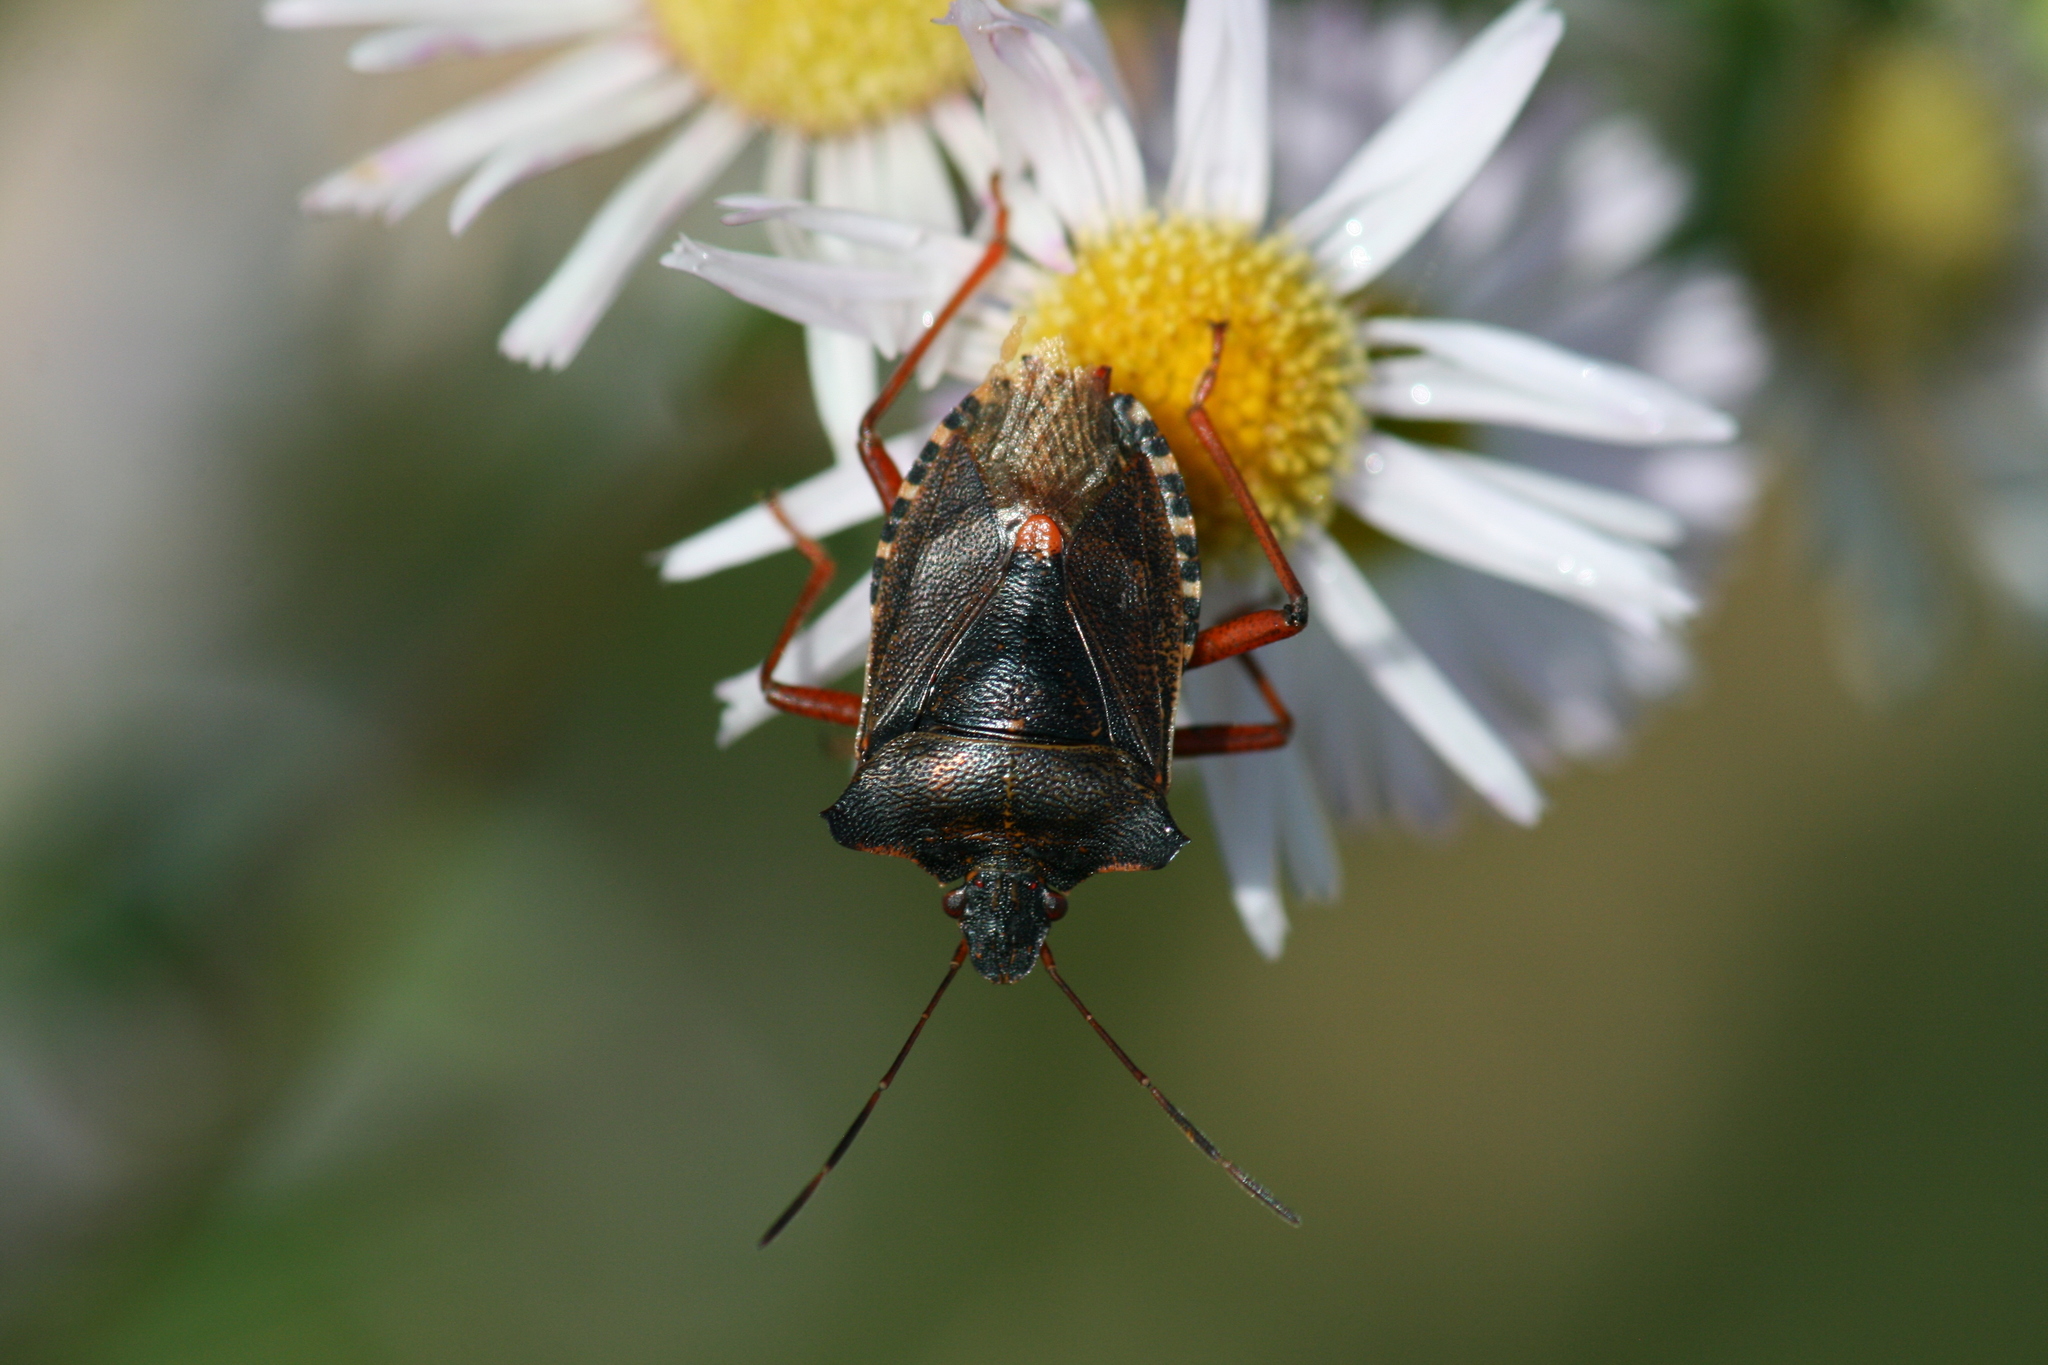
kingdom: Animalia
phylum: Arthropoda
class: Insecta
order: Hemiptera
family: Pentatomidae
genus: Pentatoma
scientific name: Pentatoma rufipes
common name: Forest bug
